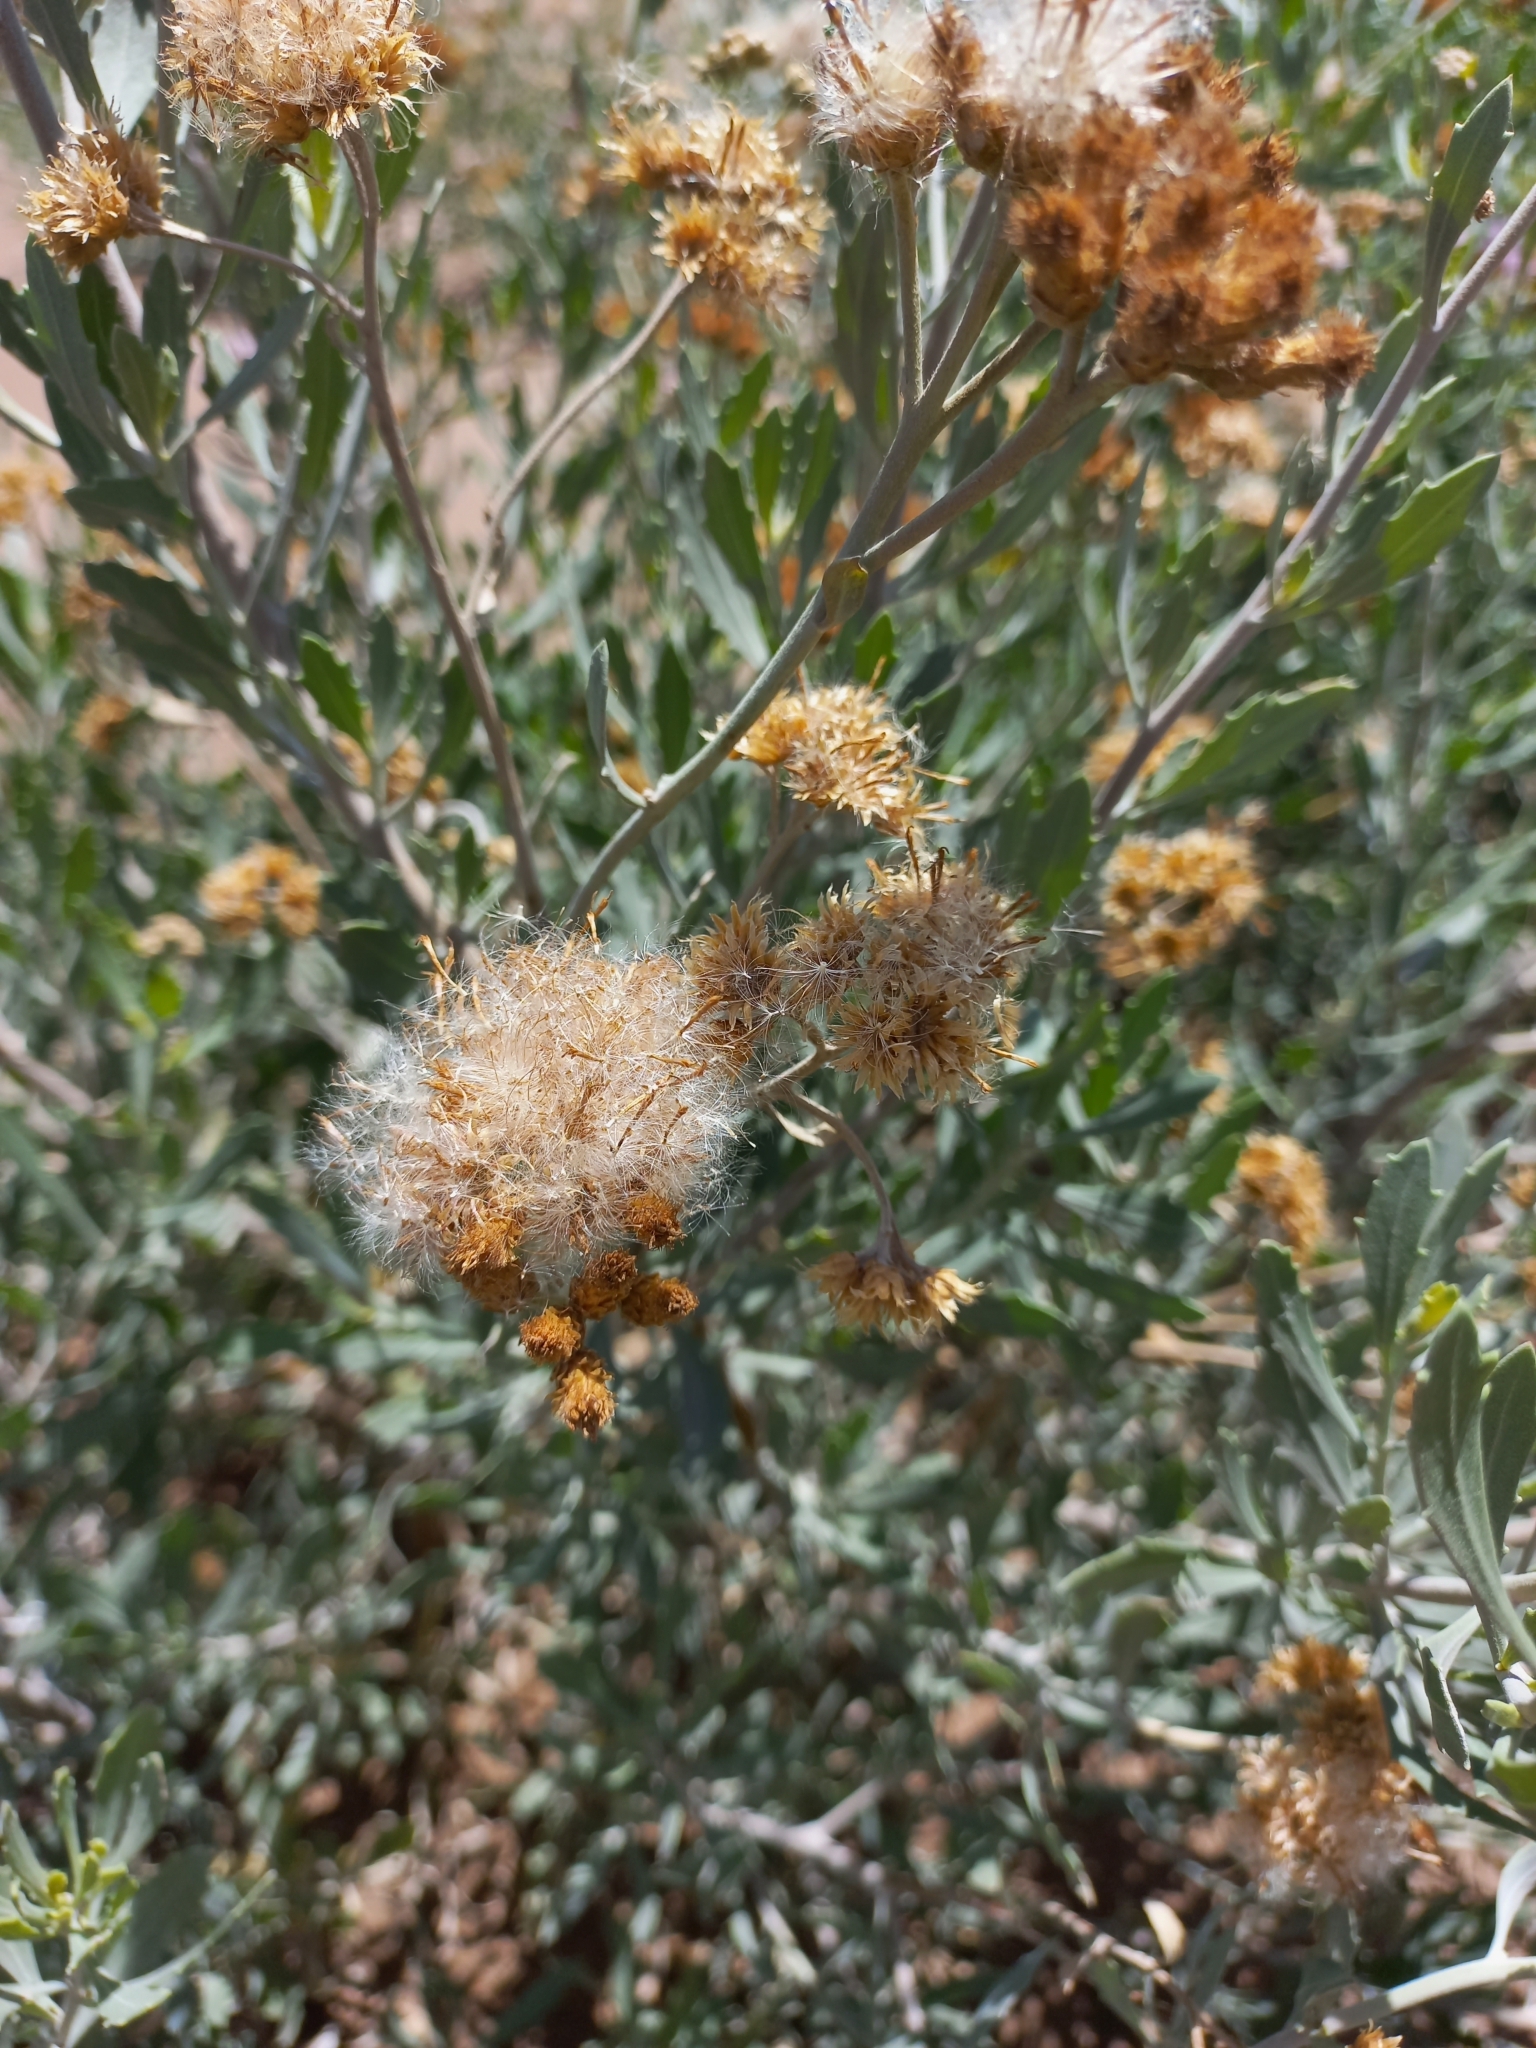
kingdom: Plantae
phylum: Tracheophyta
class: Magnoliopsida
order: Asterales
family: Asteraceae
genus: Tessaria
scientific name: Tessaria absinthioides
